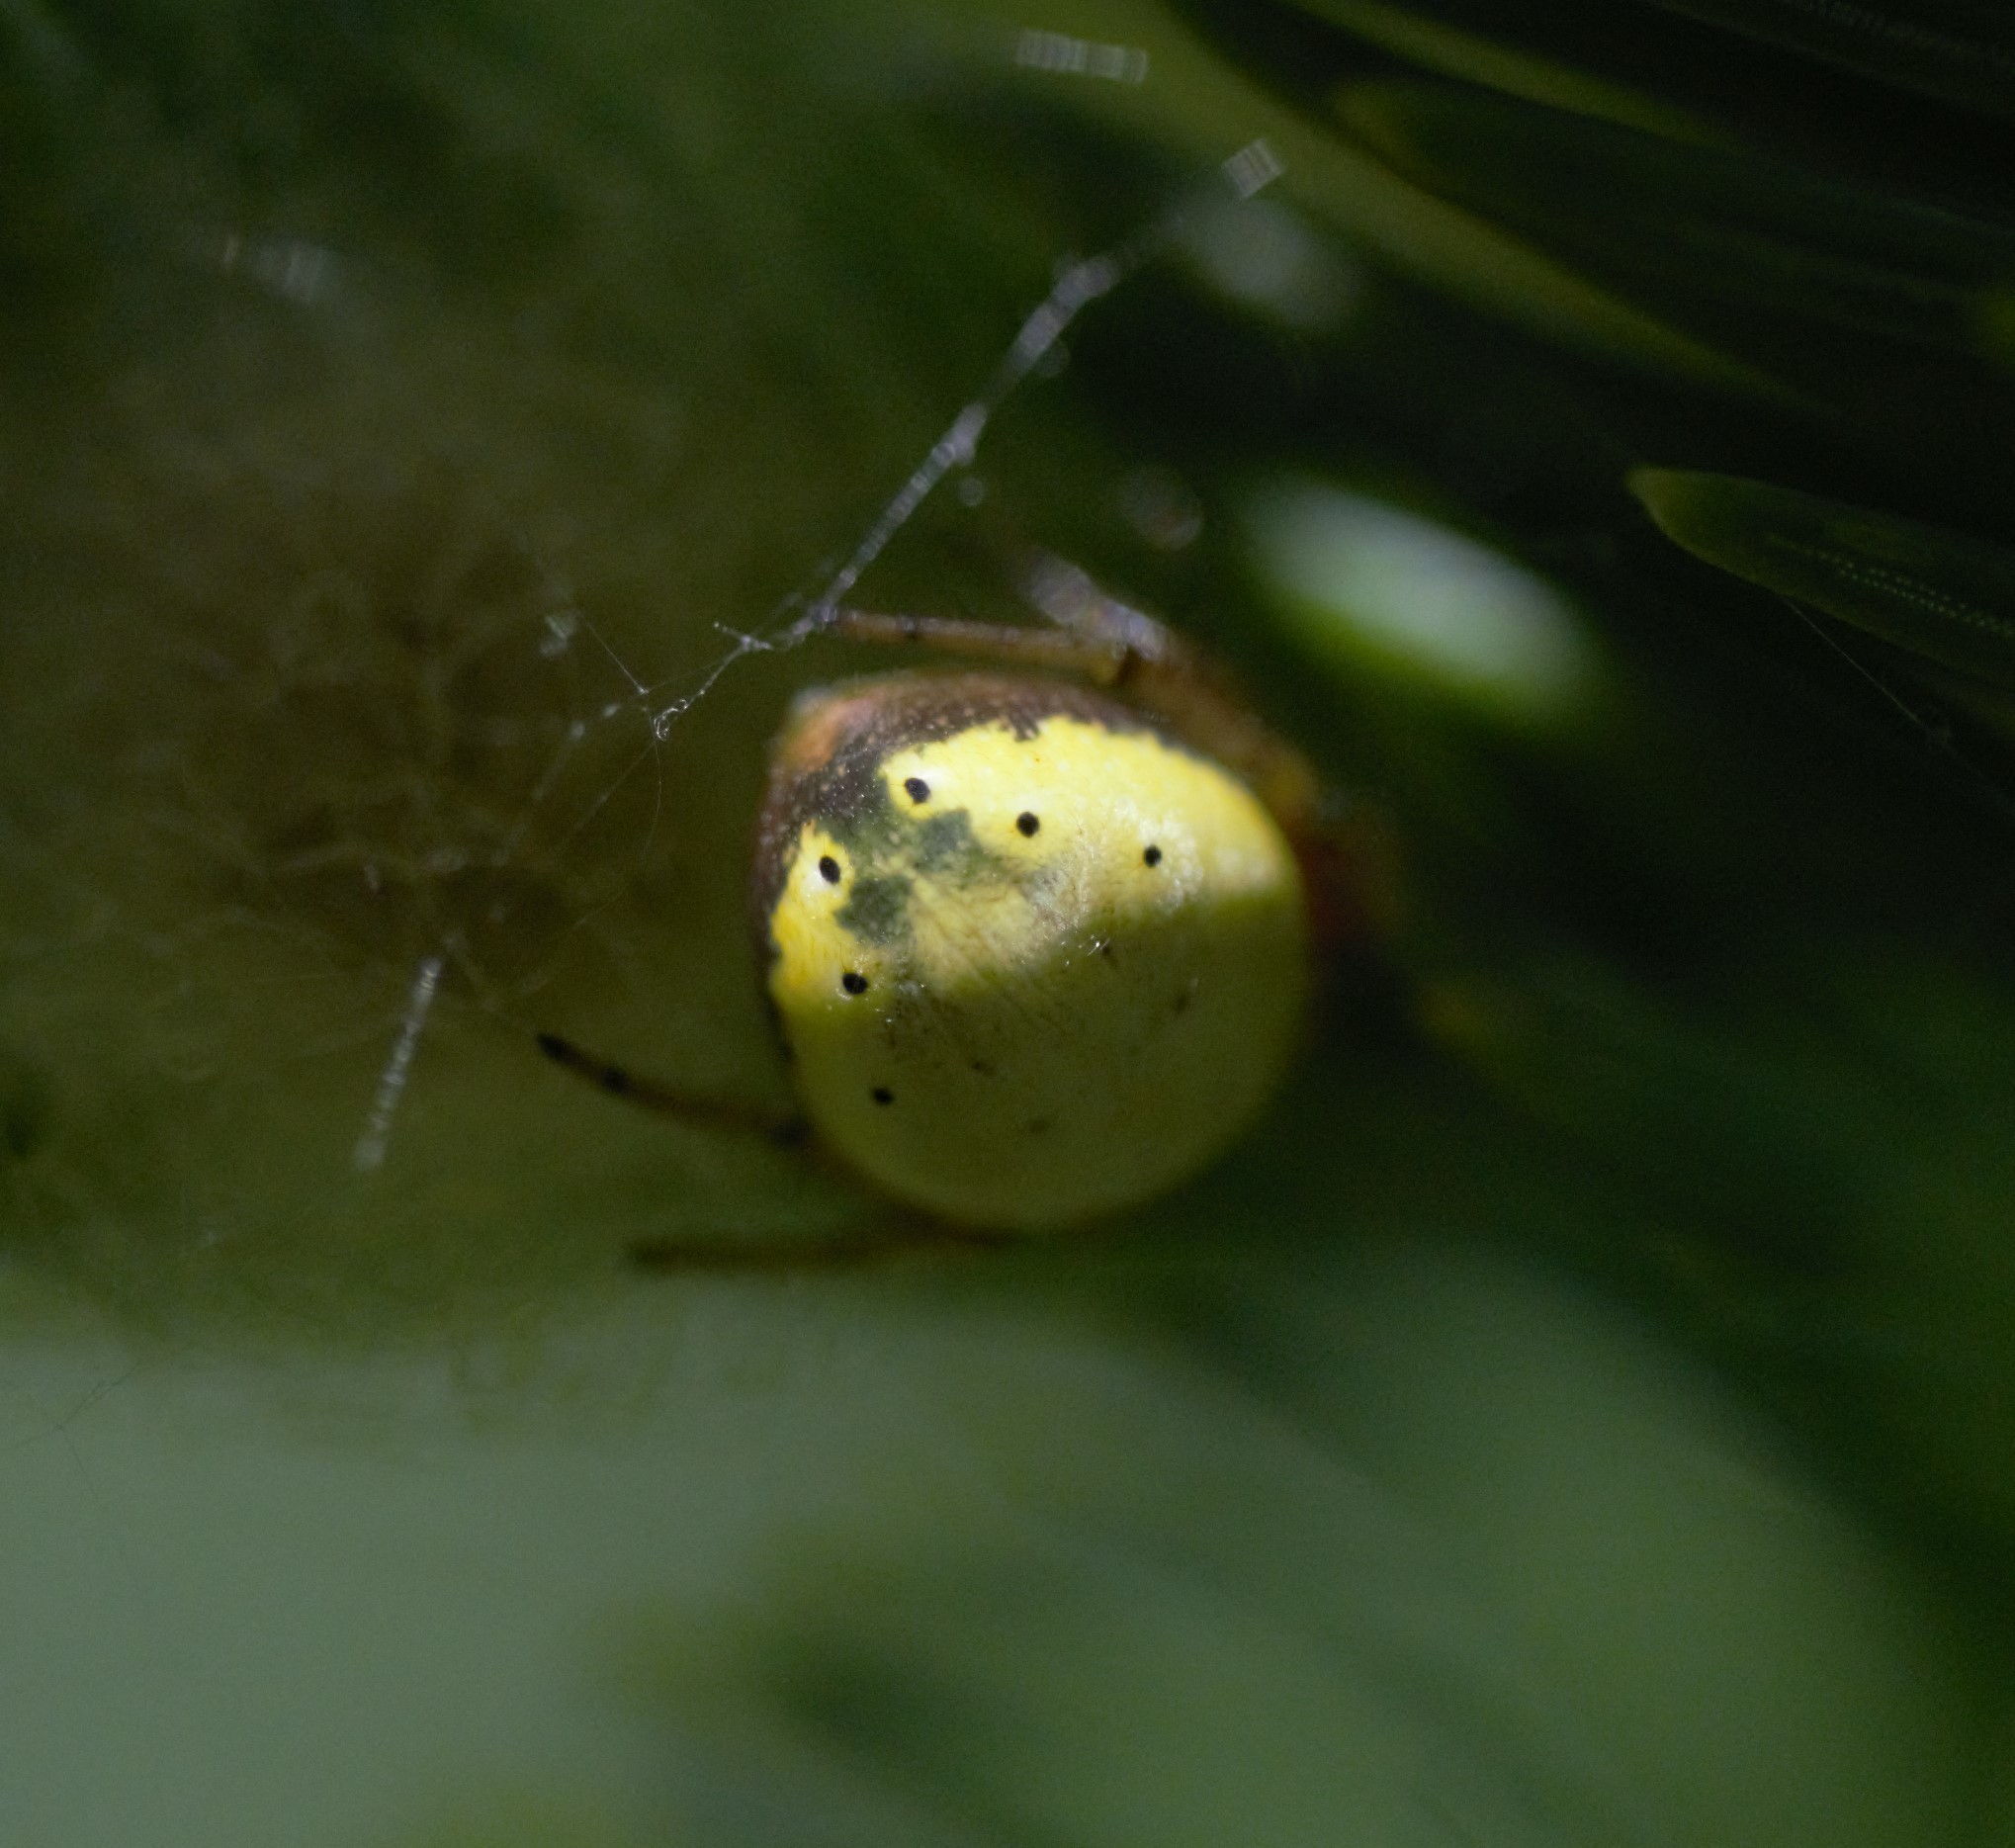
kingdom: Animalia
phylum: Arthropoda
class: Arachnida
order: Araneae
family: Araneidae
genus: Araniella
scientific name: Araniella displicata
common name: Sixspotted orb weaver
